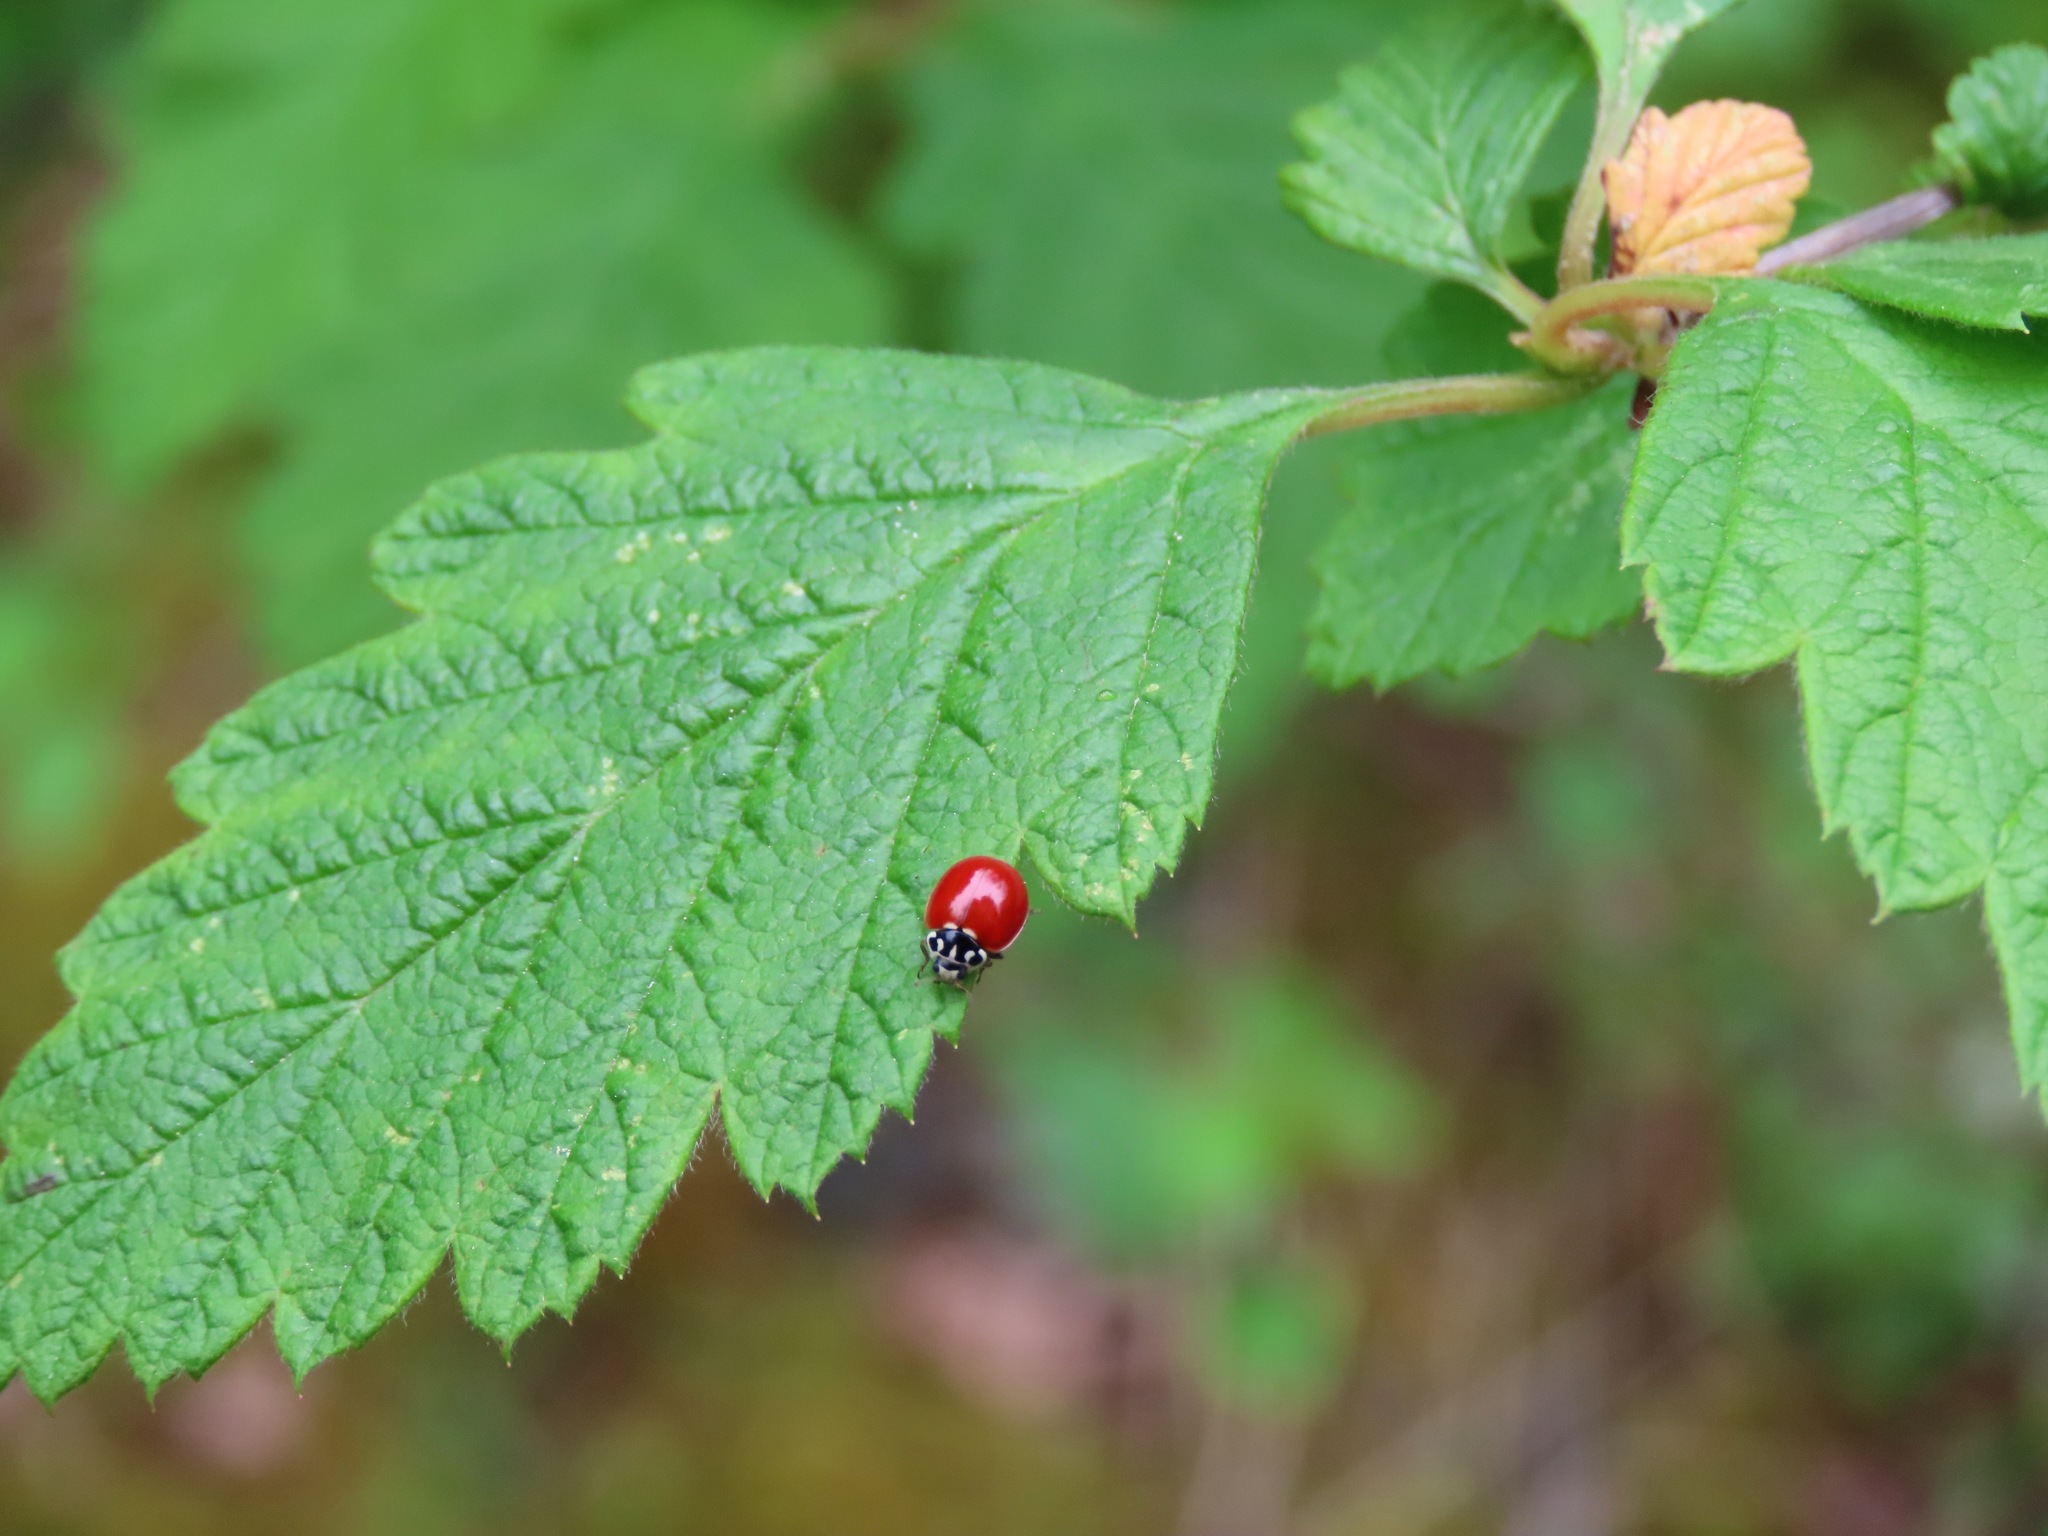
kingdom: Animalia
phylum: Arthropoda
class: Insecta
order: Coleoptera
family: Coccinellidae
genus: Cycloneda
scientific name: Cycloneda polita
